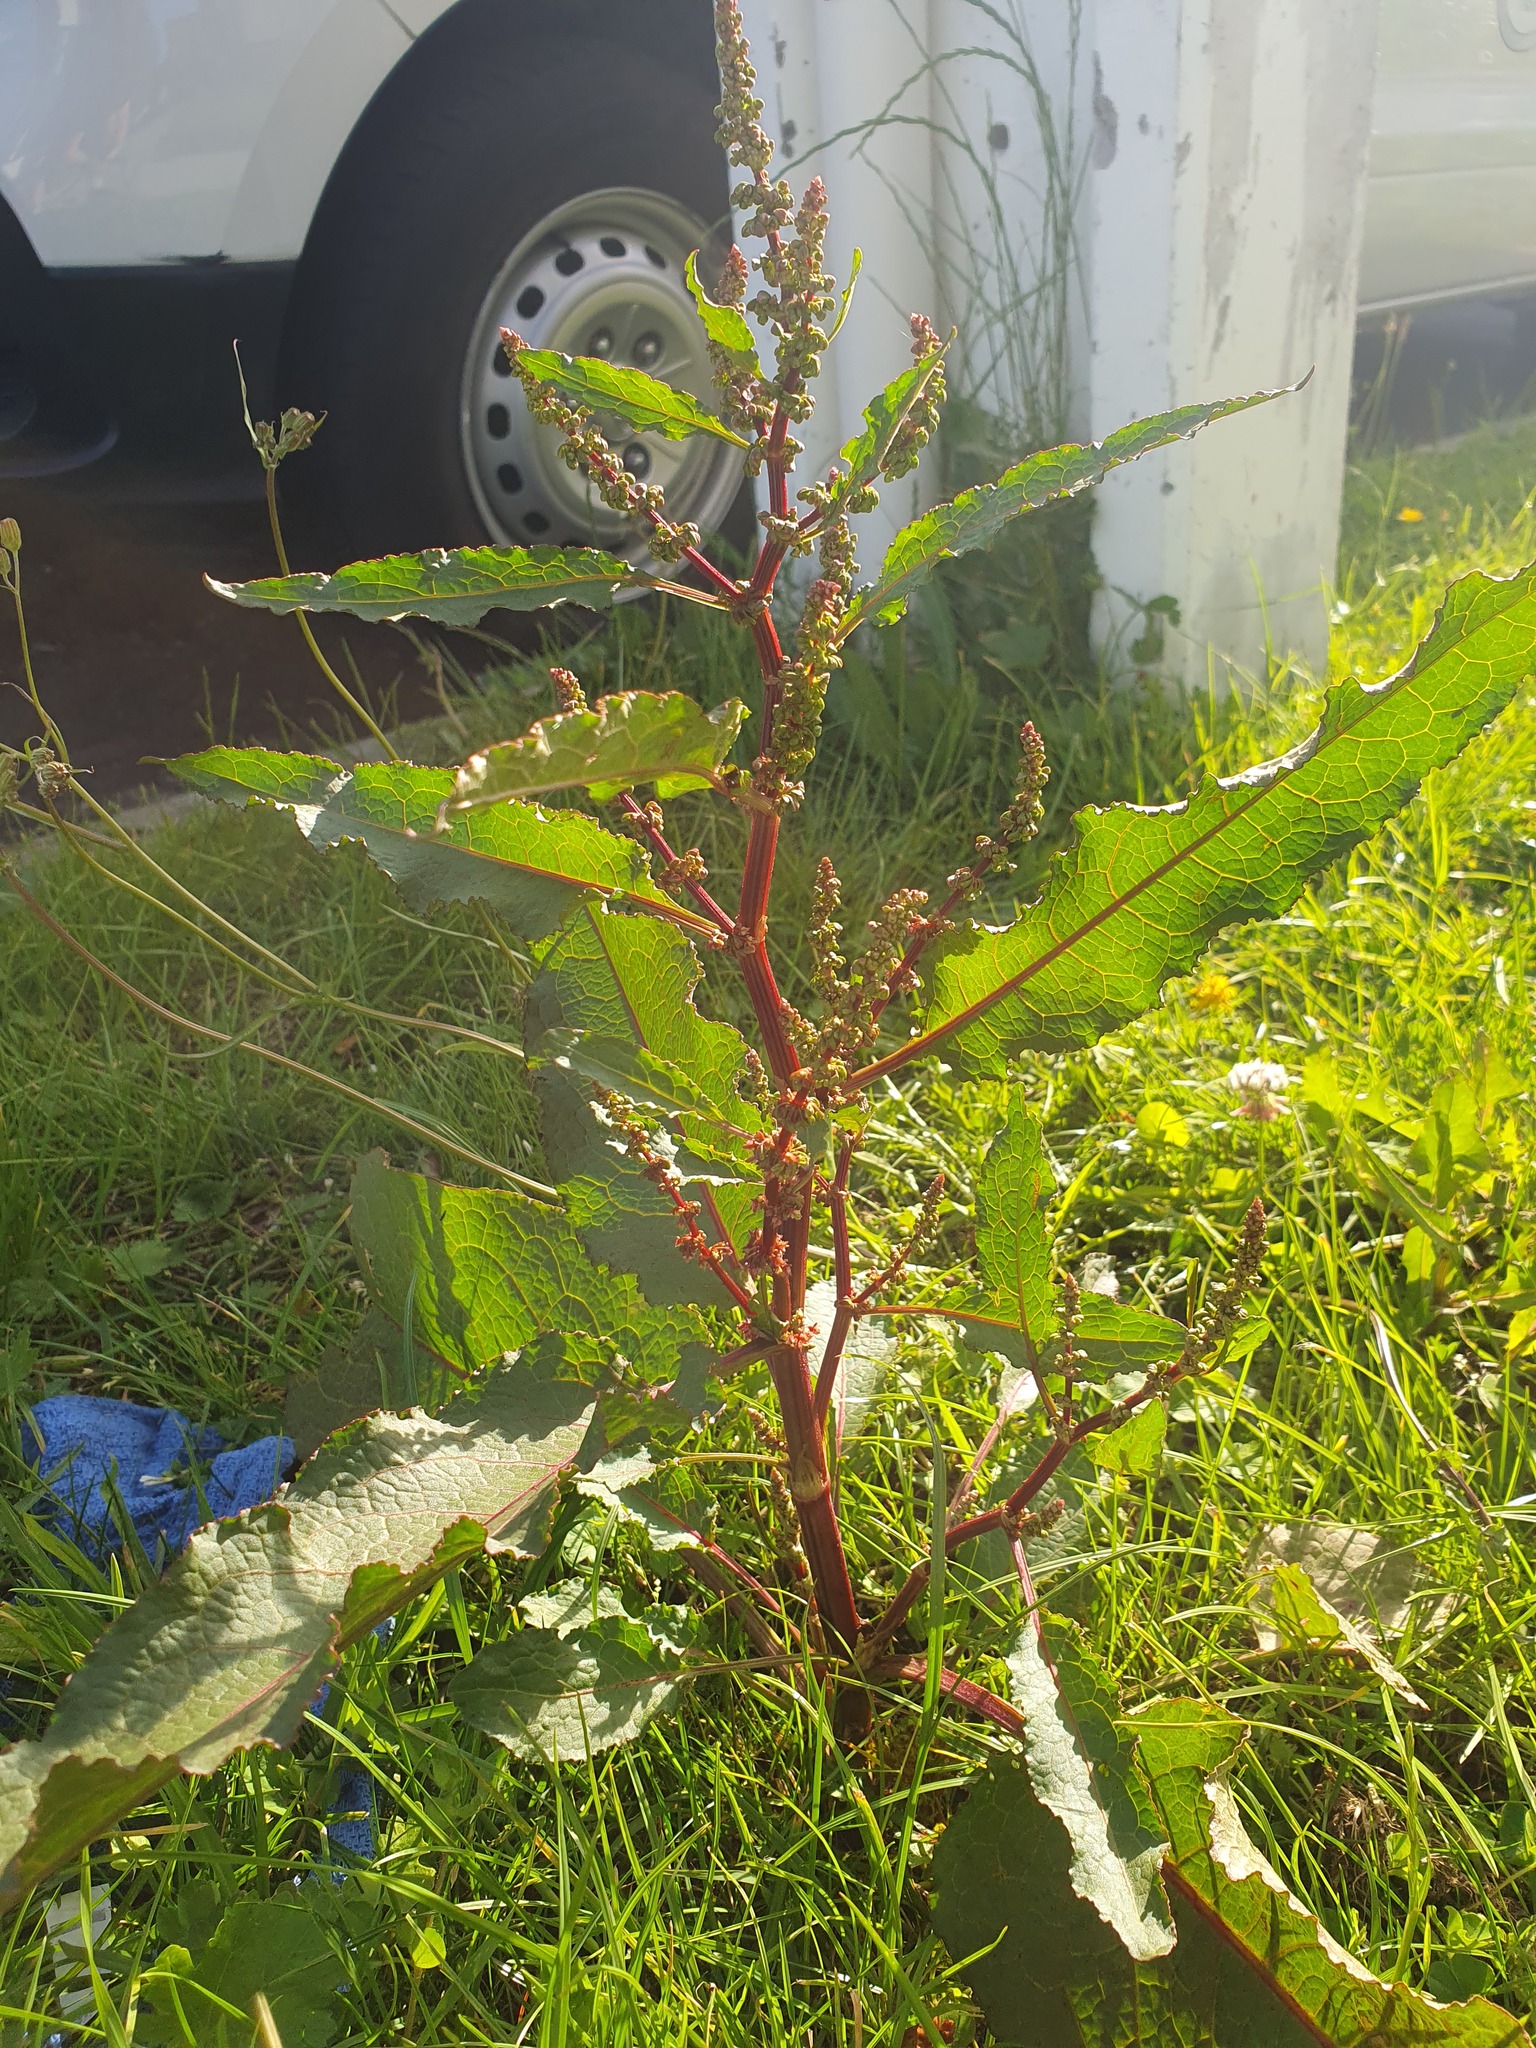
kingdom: Plantae
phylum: Tracheophyta
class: Magnoliopsida
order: Caryophyllales
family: Polygonaceae
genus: Rumex
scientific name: Rumex obtusifolius
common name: Bitter dock
